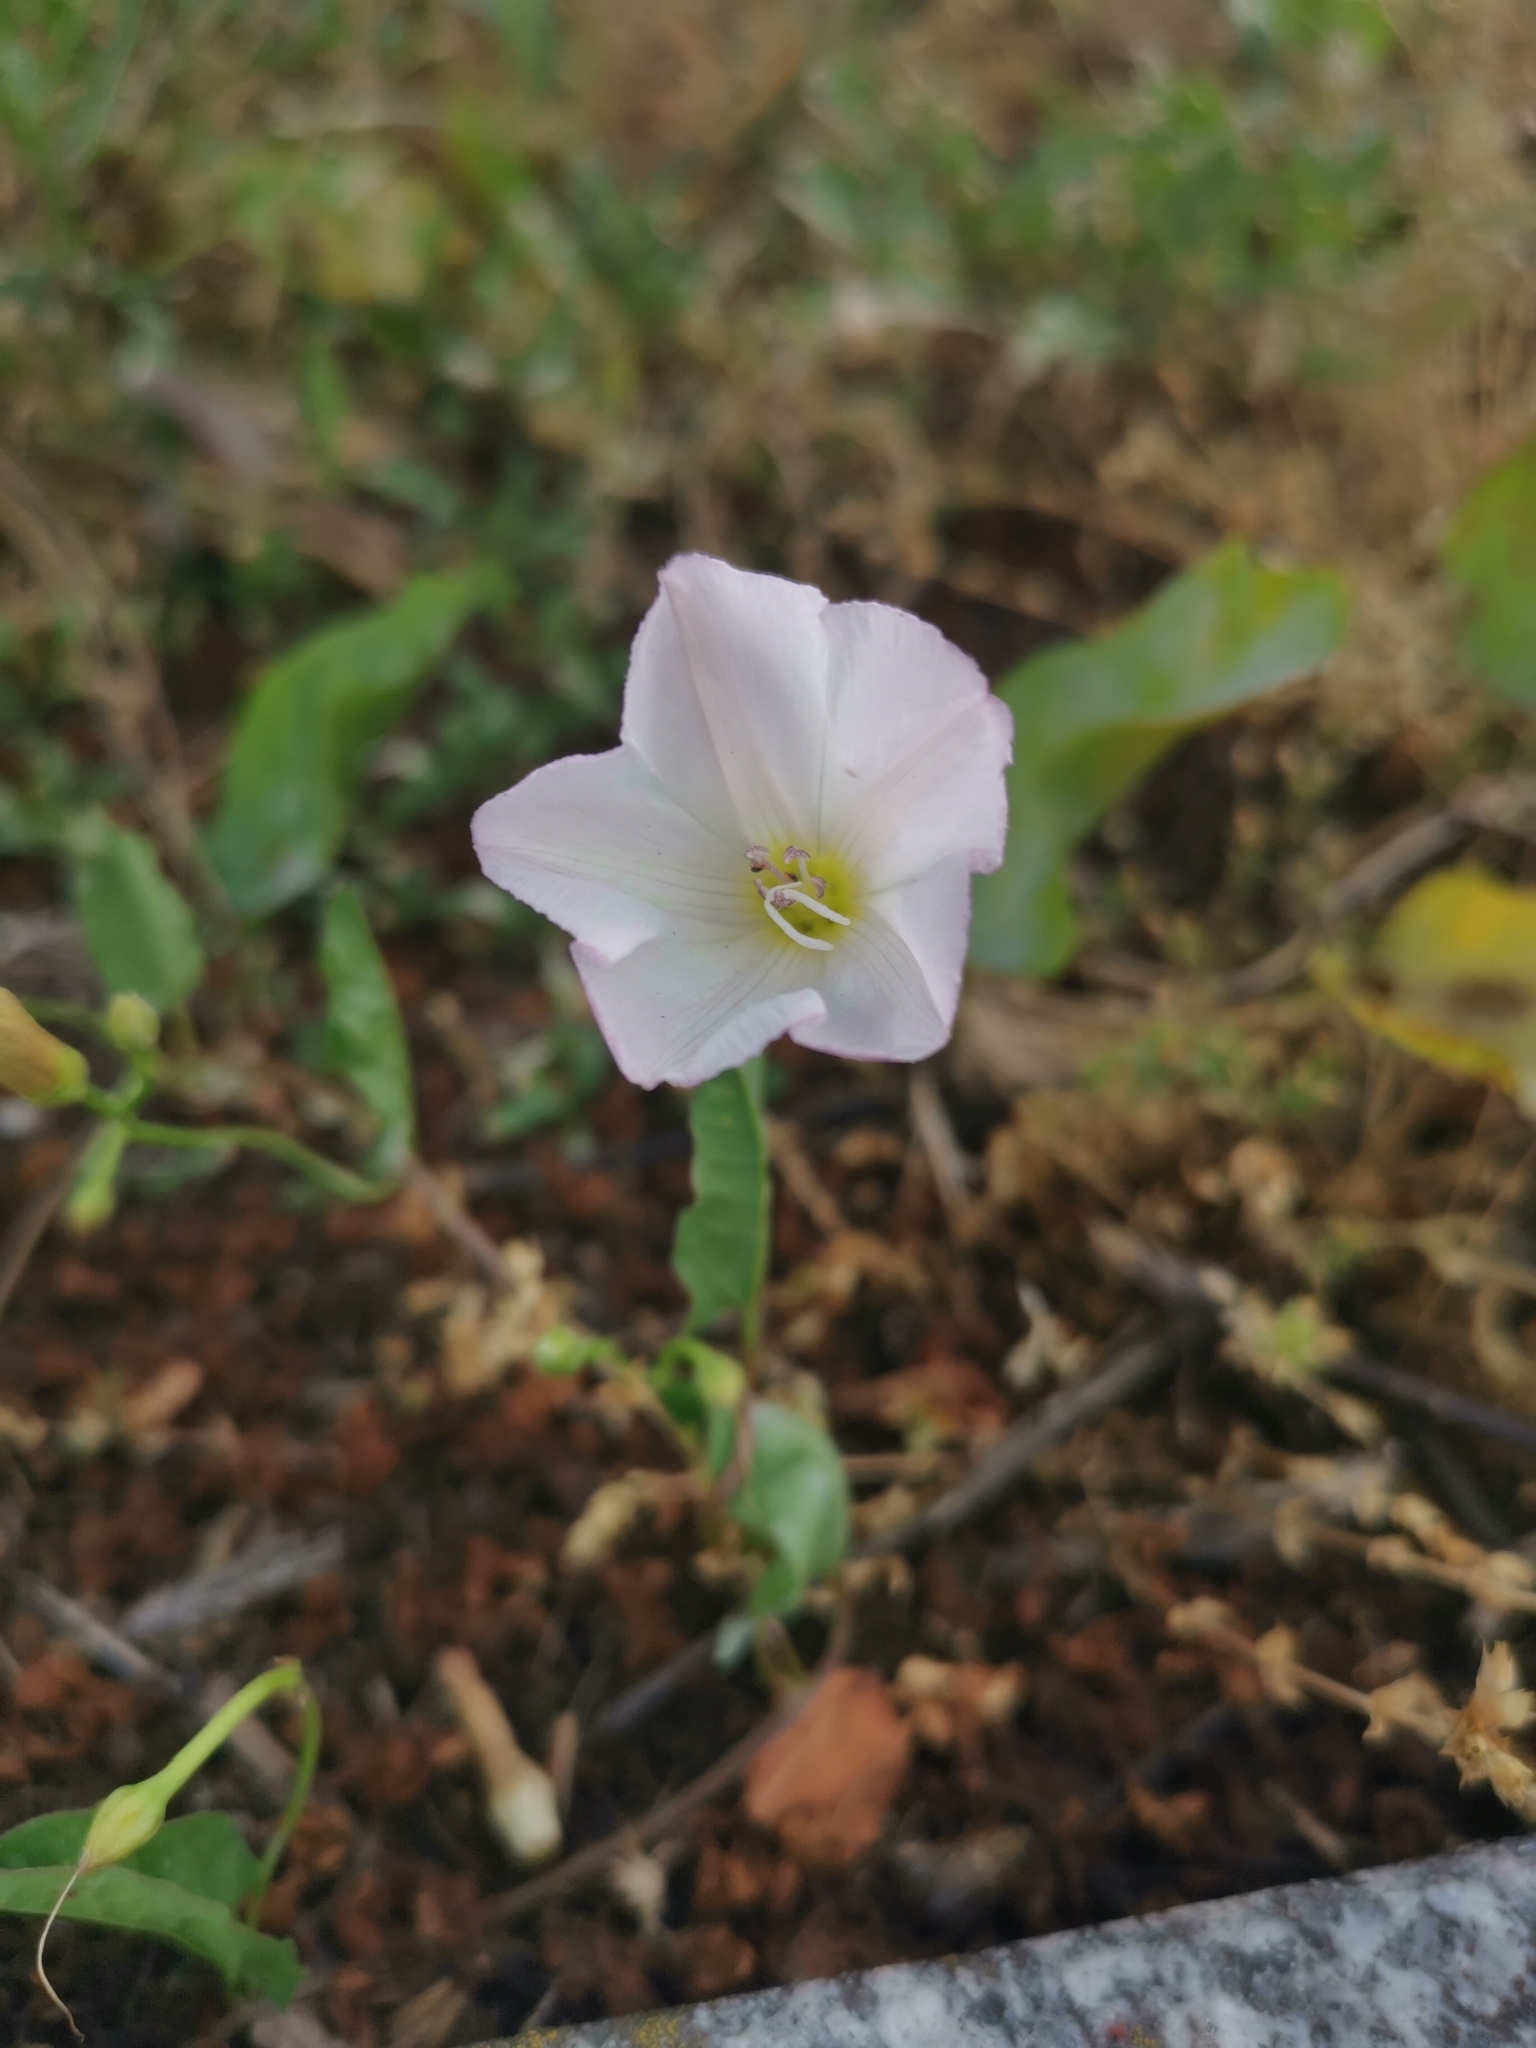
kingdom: Plantae
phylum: Tracheophyta
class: Magnoliopsida
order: Solanales
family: Convolvulaceae
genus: Convolvulus
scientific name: Convolvulus arvensis
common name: Field bindweed
